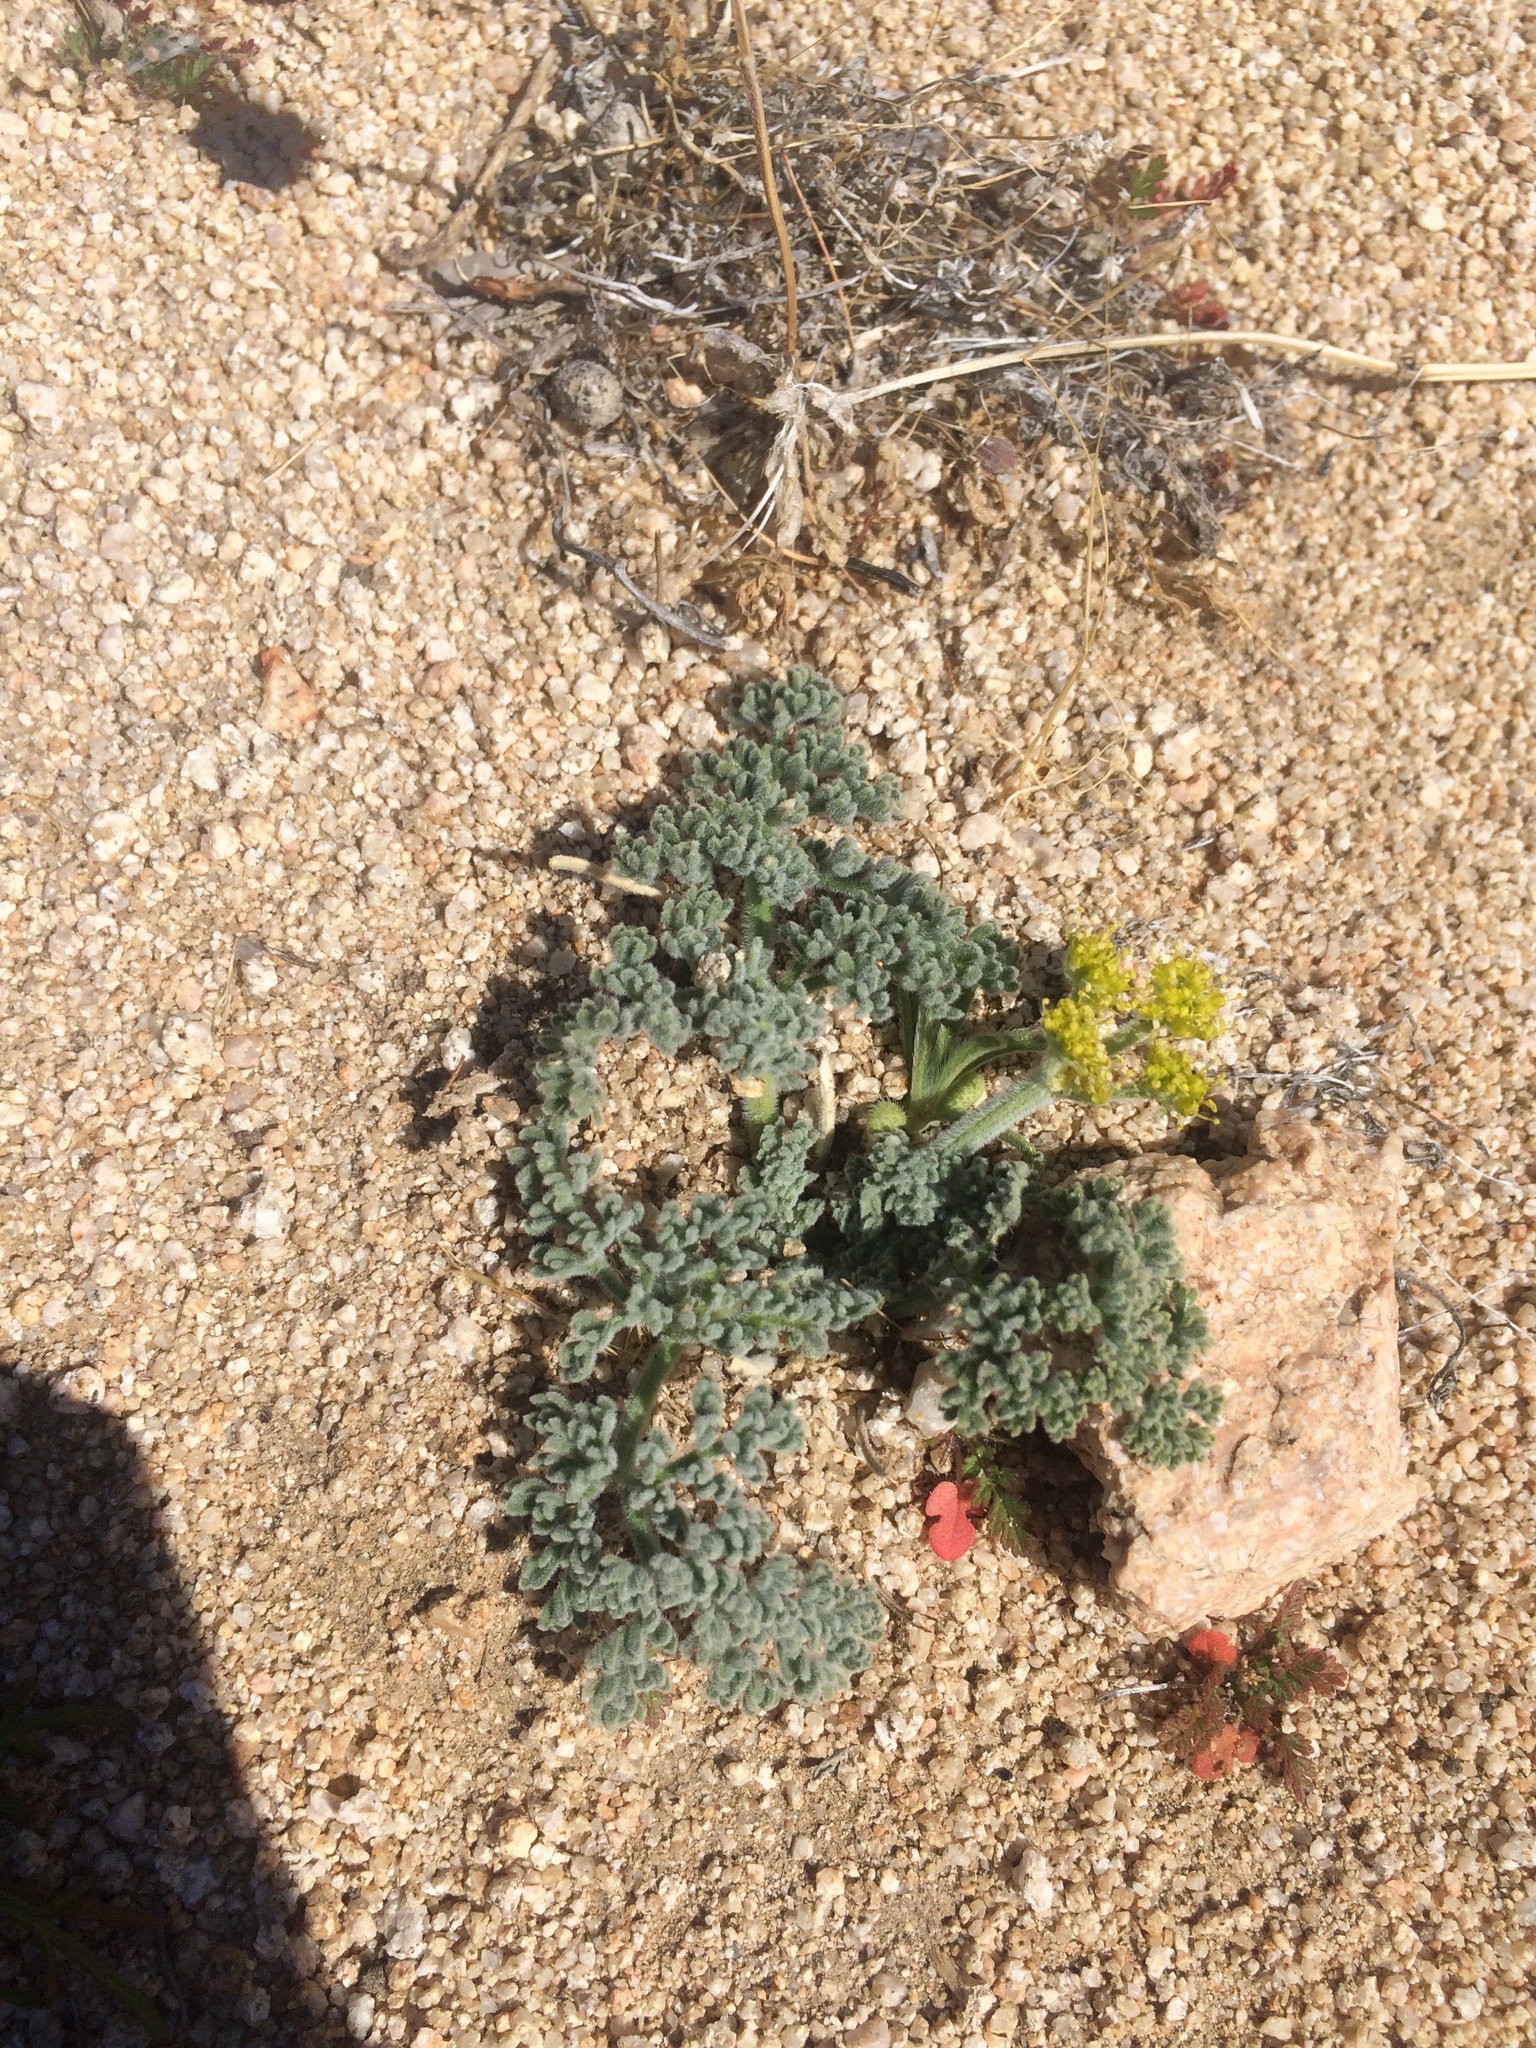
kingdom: Plantae
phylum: Tracheophyta
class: Magnoliopsida
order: Apiales
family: Apiaceae
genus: Lomatium
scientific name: Lomatium mohavense
